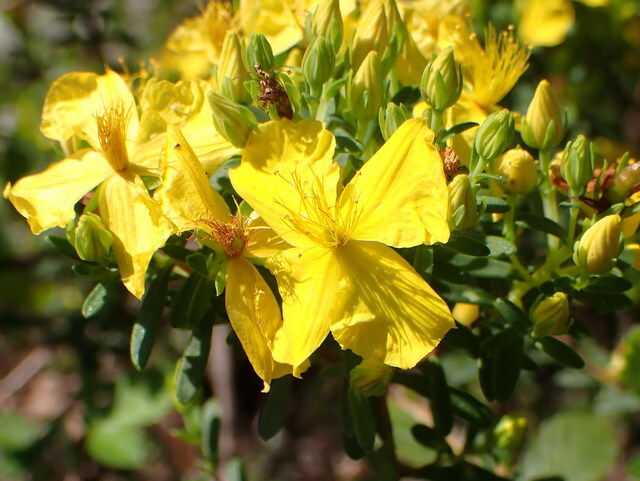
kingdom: Plantae
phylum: Tracheophyta
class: Magnoliopsida
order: Malpighiales
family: Hypericaceae
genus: Hypericum
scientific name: Hypericum microsepalum
